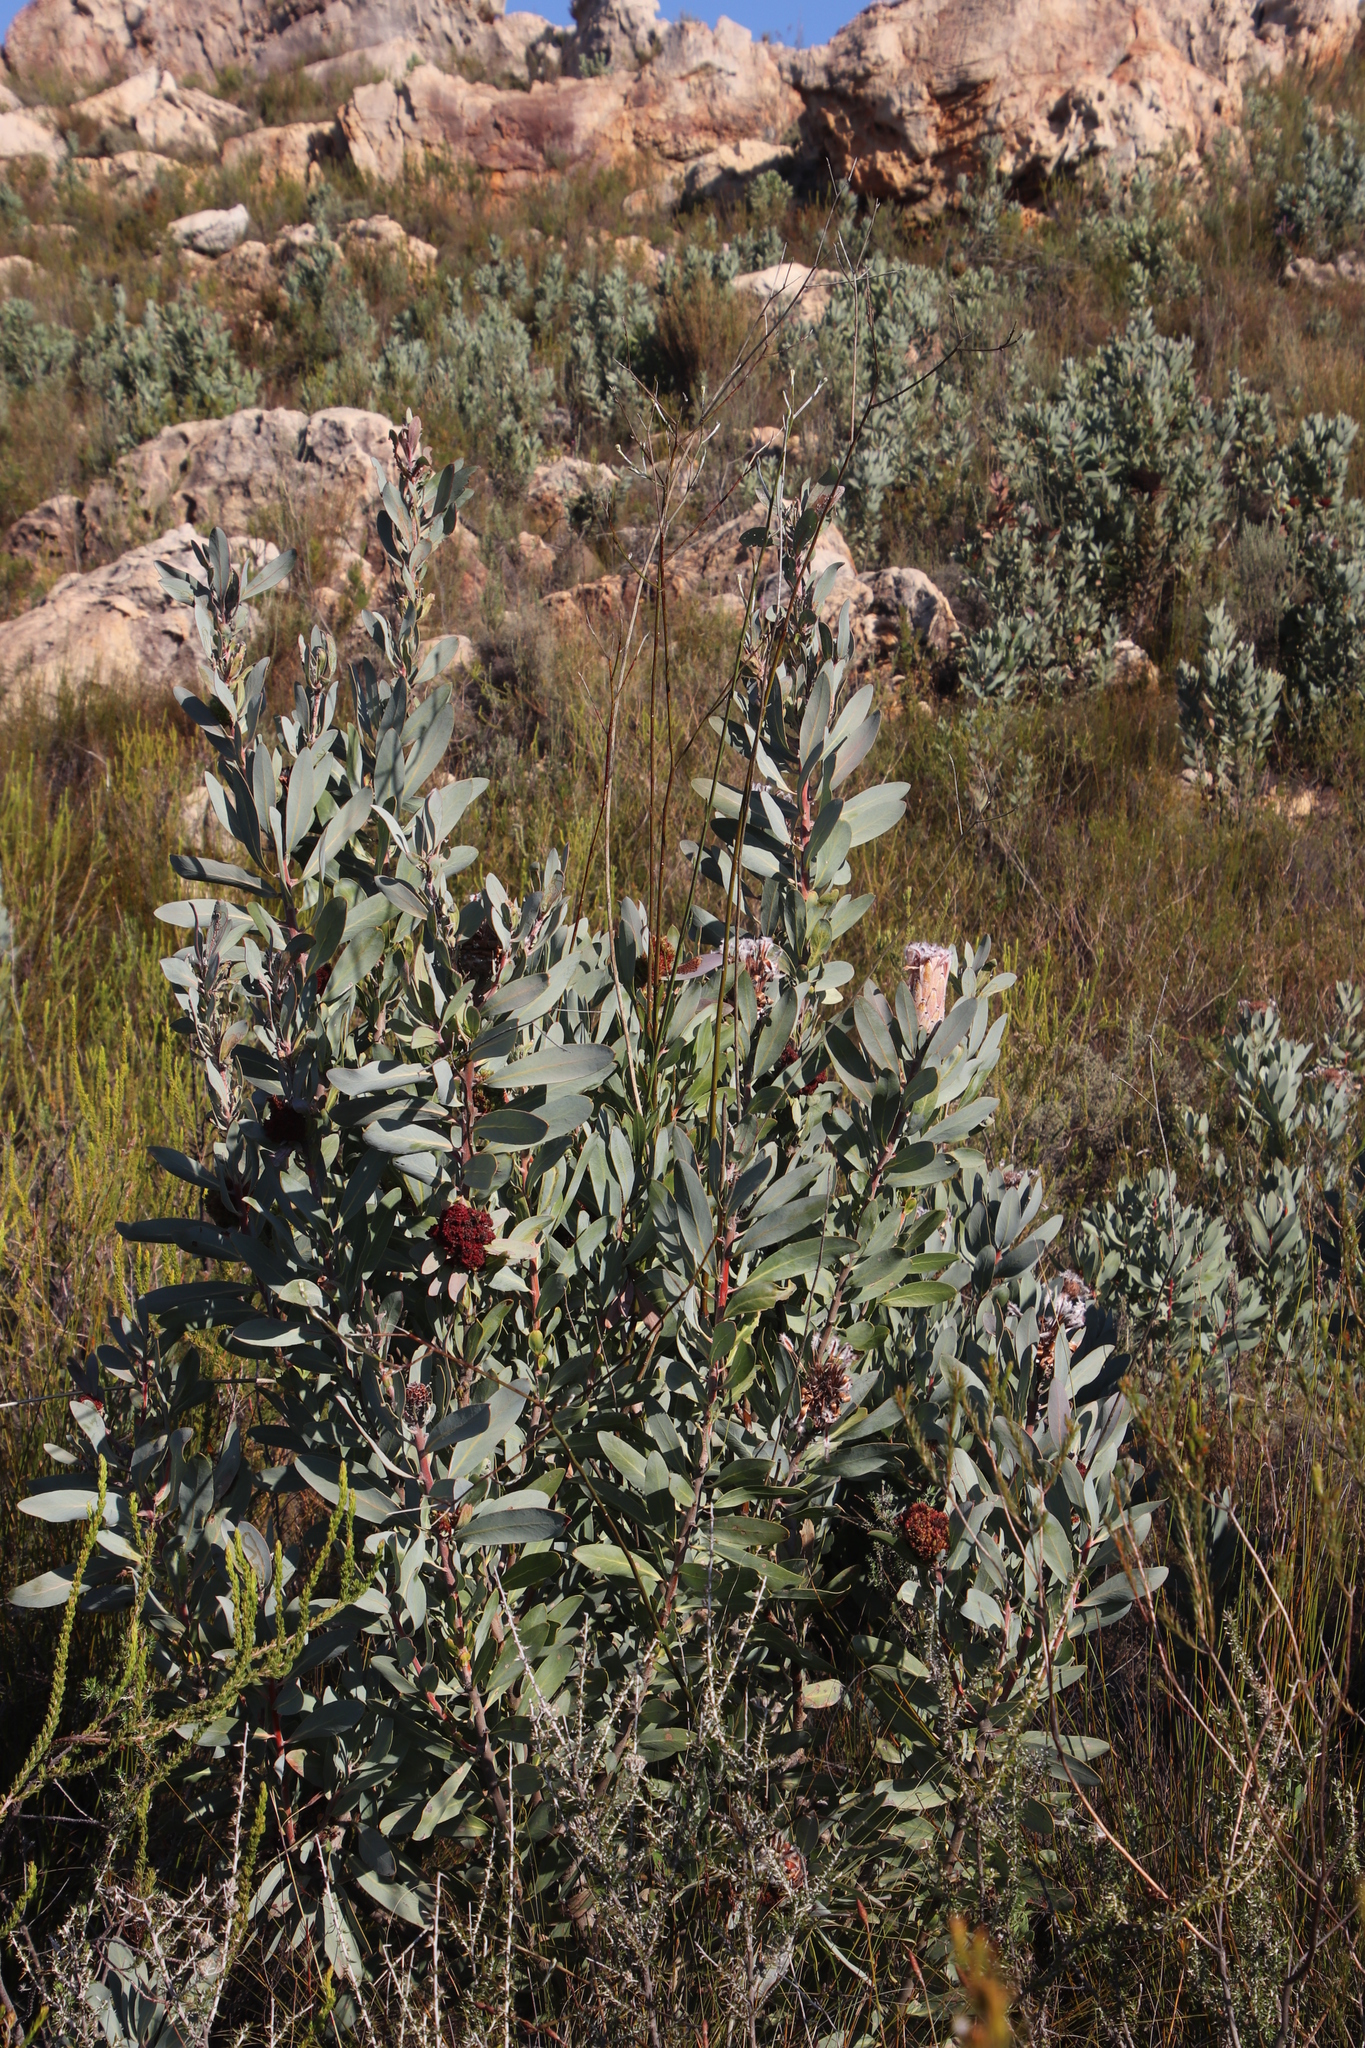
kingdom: Plantae
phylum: Tracheophyta
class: Magnoliopsida
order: Proteales
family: Proteaceae
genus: Protea
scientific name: Protea laurifolia
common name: Grey-leaf sugarbsh
